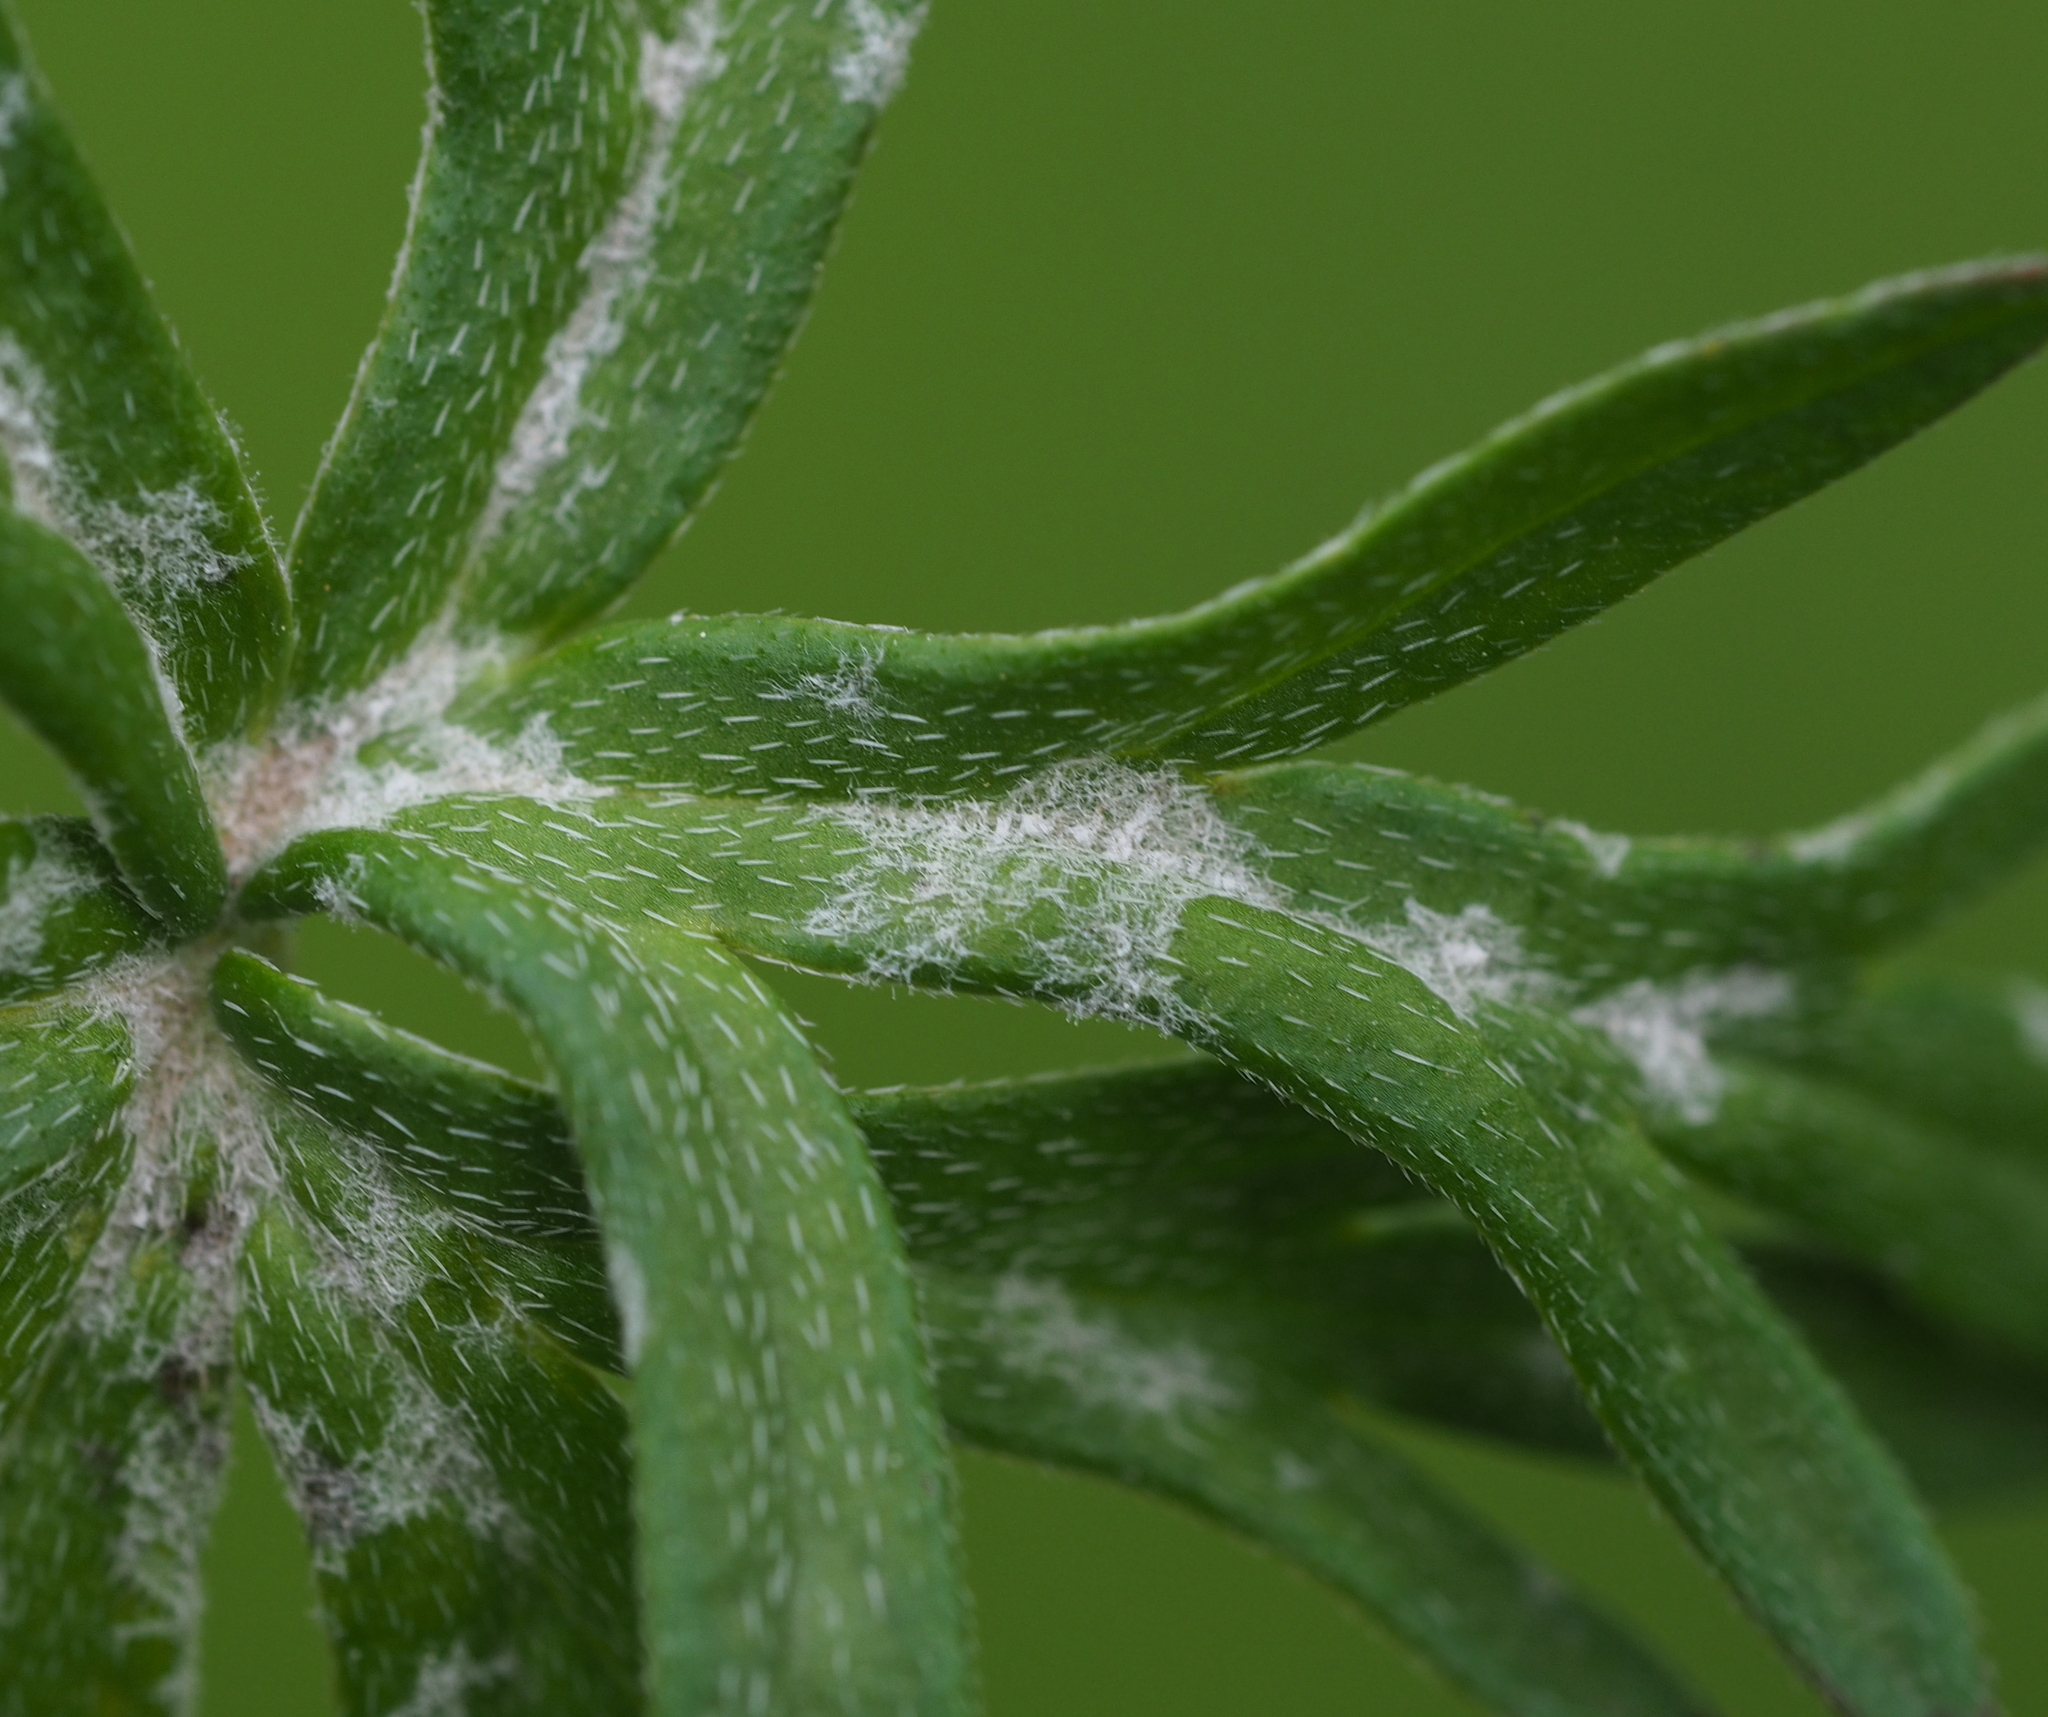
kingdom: Fungi
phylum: Ascomycota
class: Leotiomycetes
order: Helotiales
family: Erysiphaceae
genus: Podosphaera
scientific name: Podosphaera fugax
